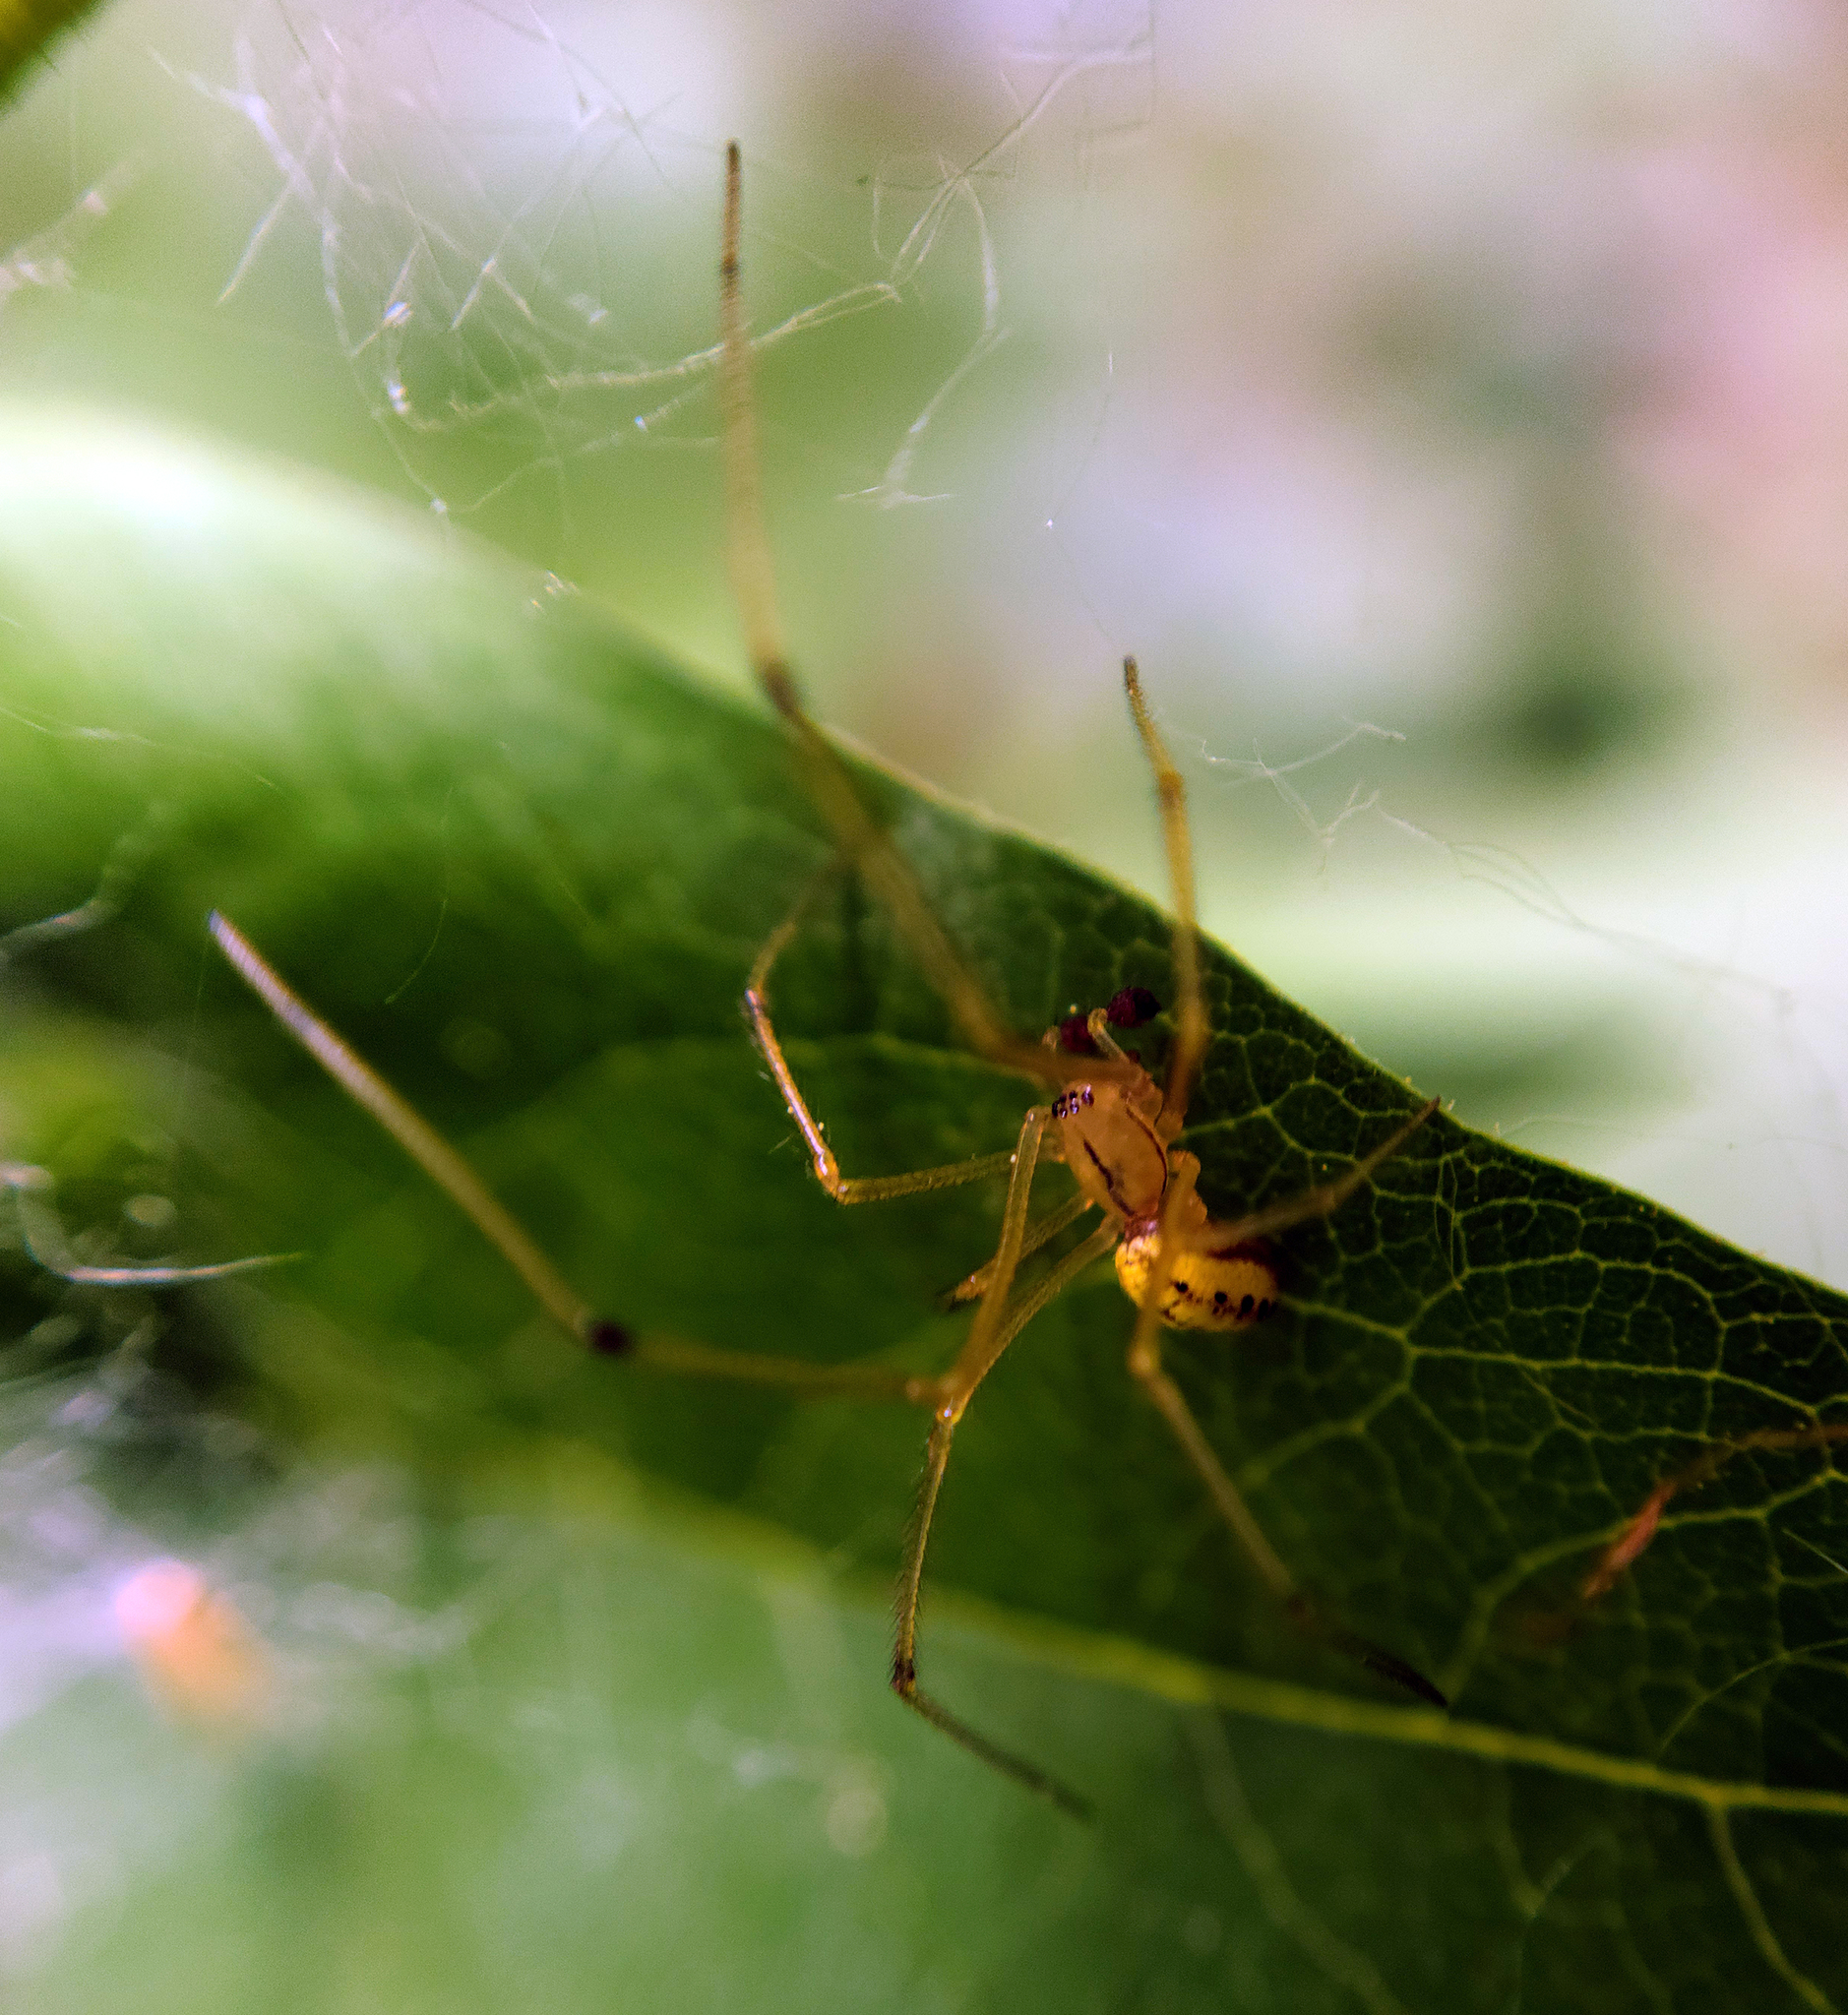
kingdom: Animalia
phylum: Arthropoda
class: Arachnida
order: Araneae
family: Theridiidae
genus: Enoplognatha
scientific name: Enoplognatha ovata
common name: Common candy-striped spider
